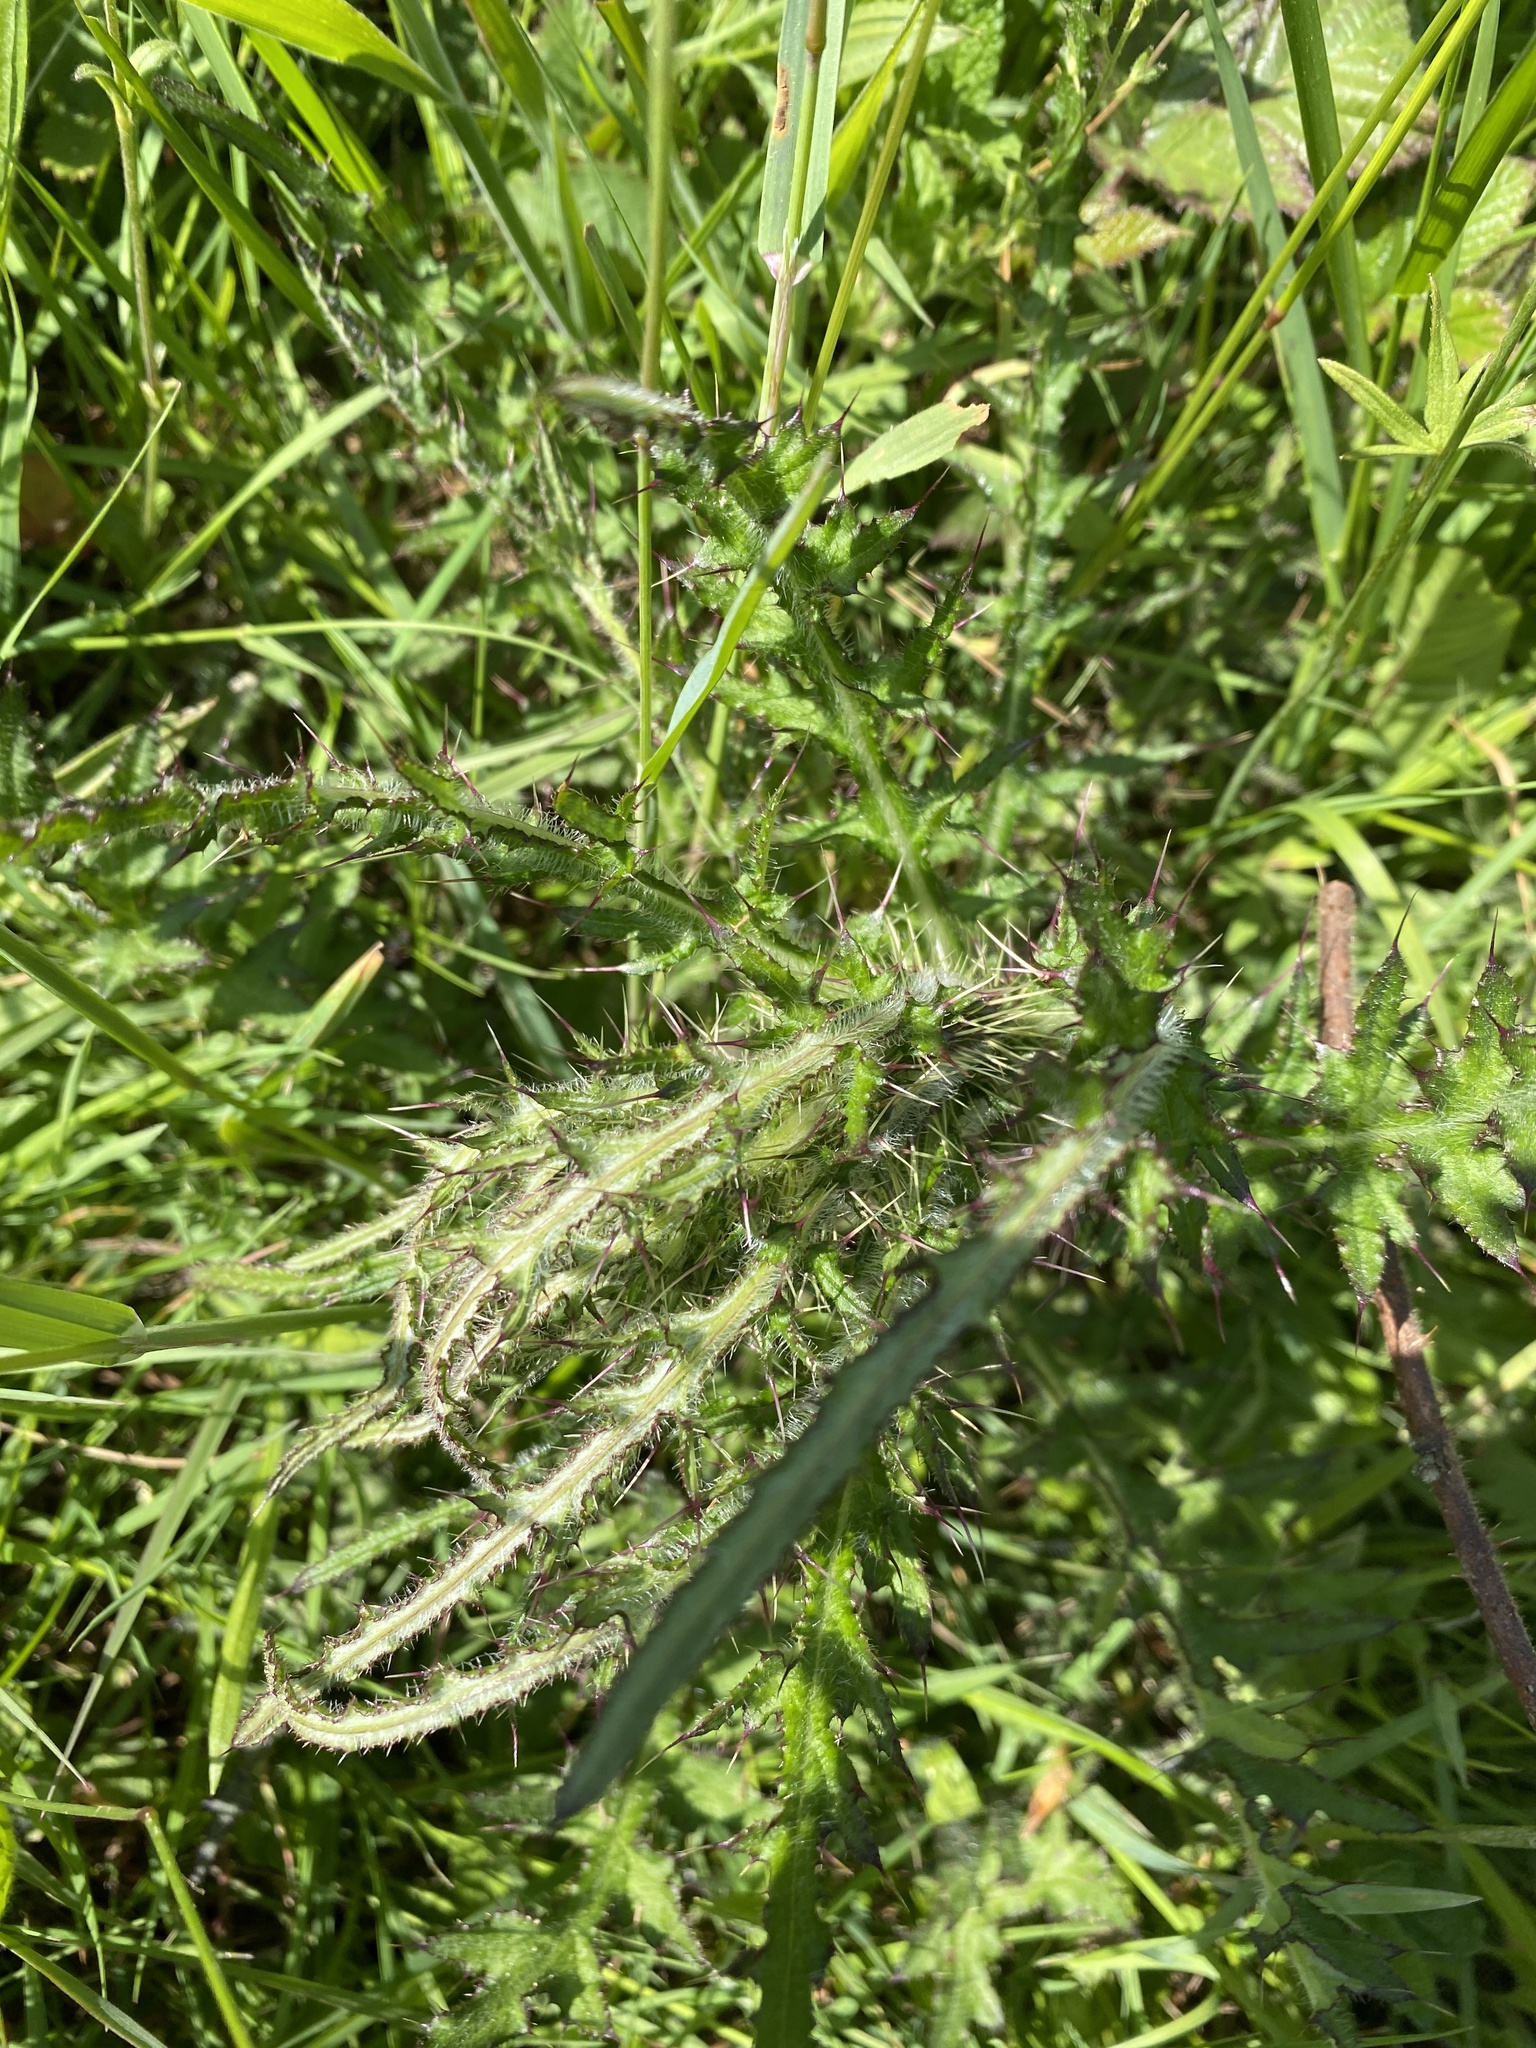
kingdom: Plantae
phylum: Tracheophyta
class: Magnoliopsida
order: Asterales
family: Asteraceae
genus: Cirsium
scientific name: Cirsium palustre
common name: Marsh thistle
